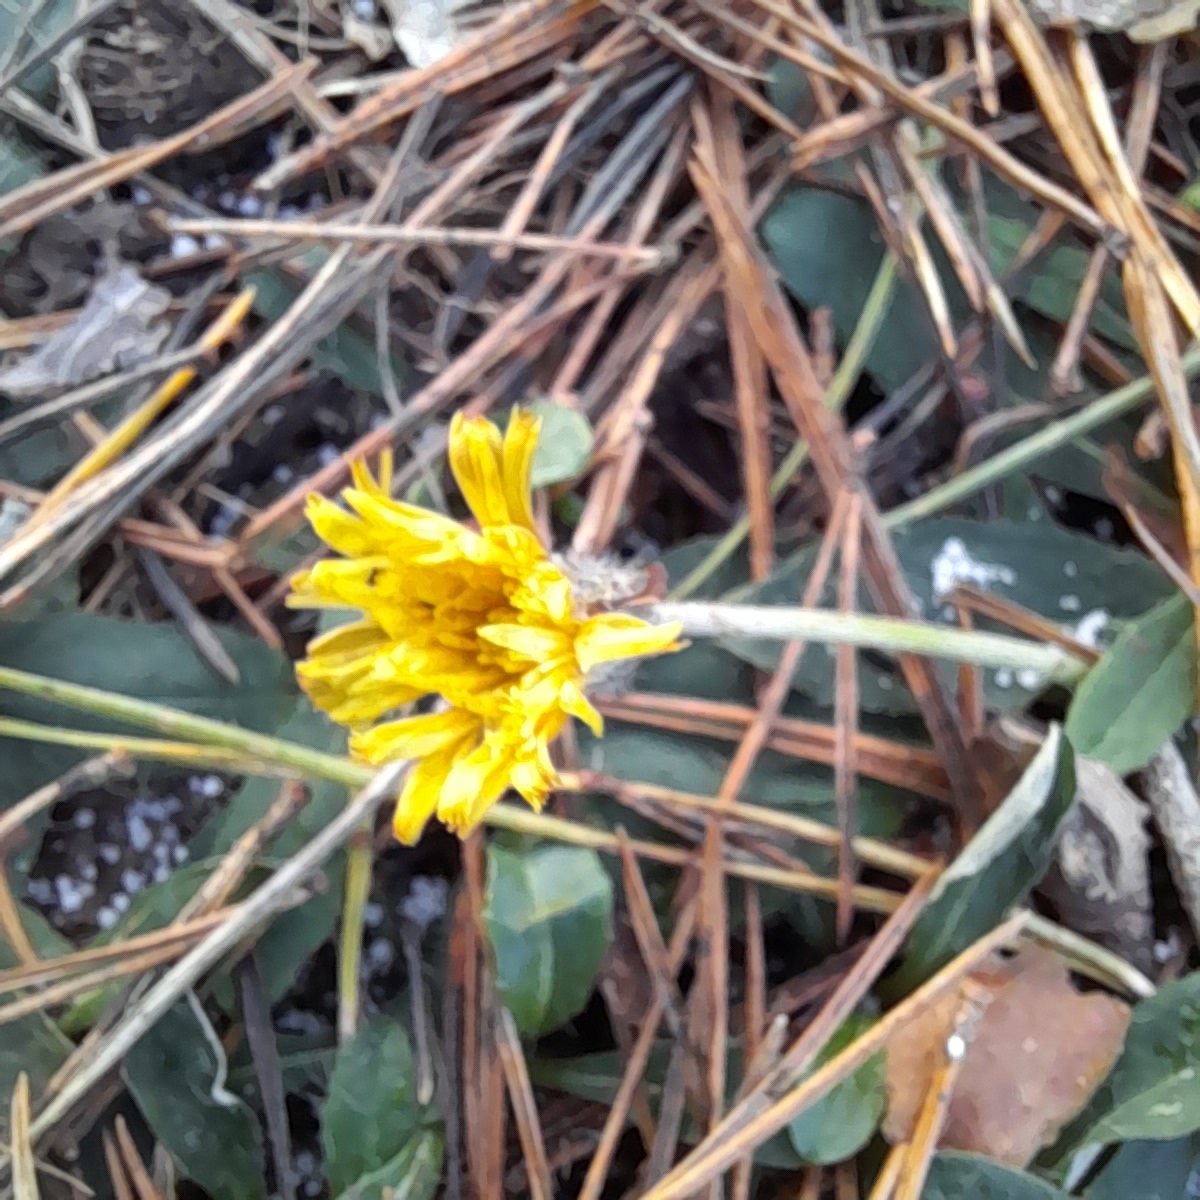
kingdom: Plantae
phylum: Tracheophyta
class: Magnoliopsida
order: Asterales
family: Asteraceae
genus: Pilosella
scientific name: Pilosella officinarum
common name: Mouse-ear hawkweed
